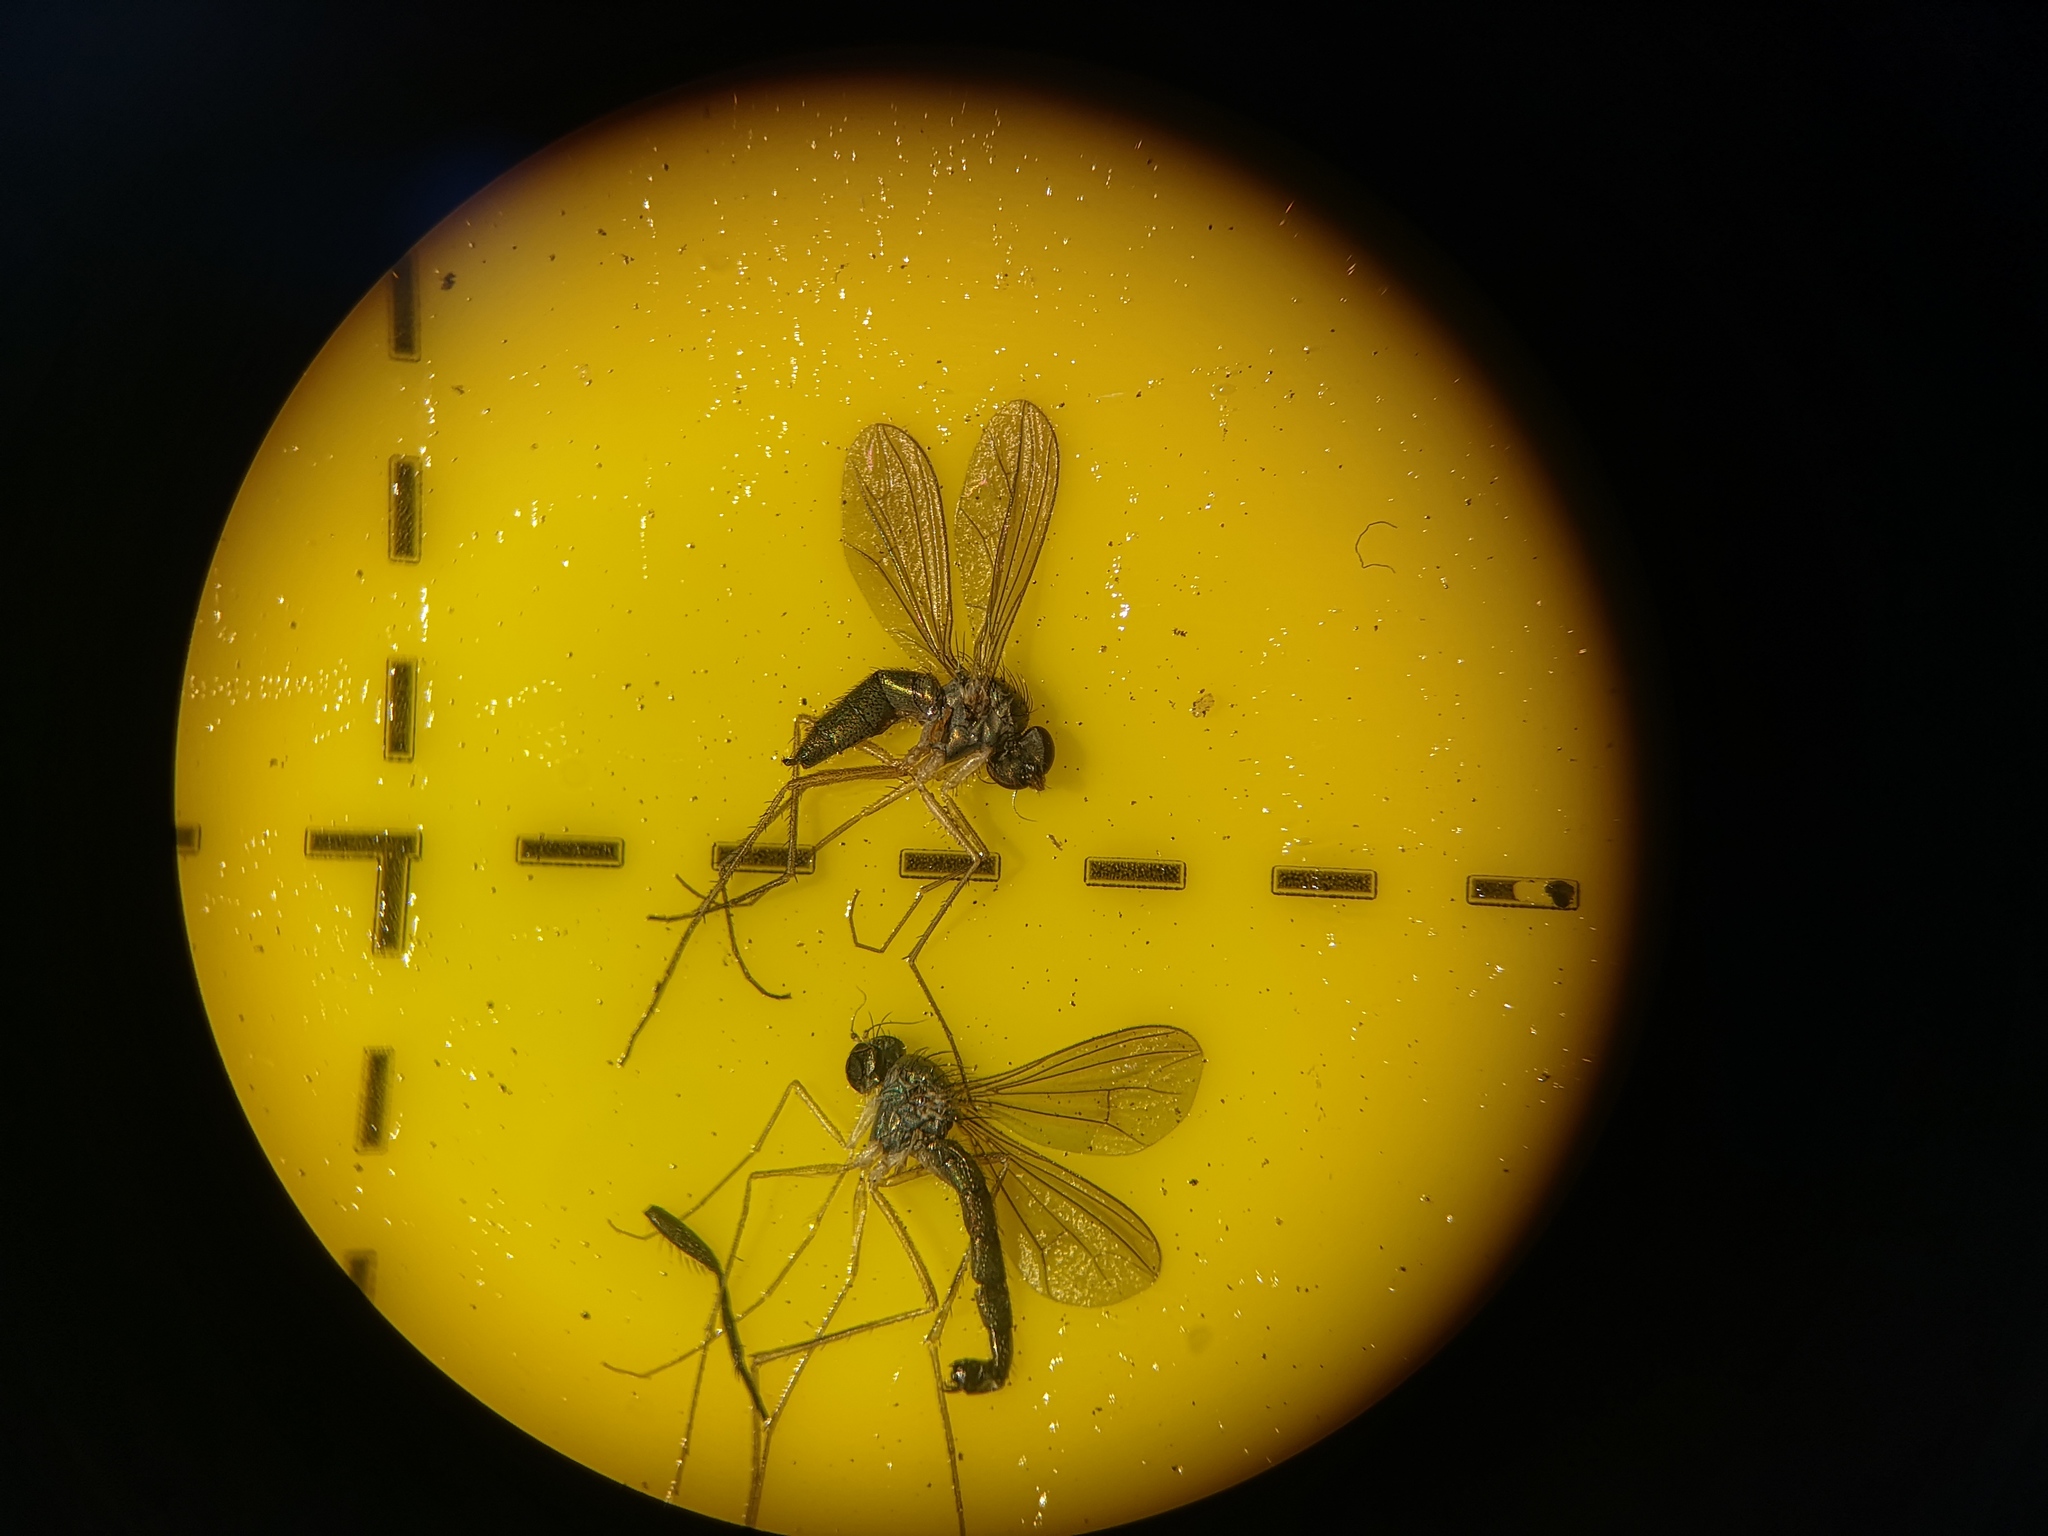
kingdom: Animalia
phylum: Arthropoda
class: Insecta
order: Diptera
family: Dolichopodidae
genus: Sciapus
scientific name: Sciapus platypterus
